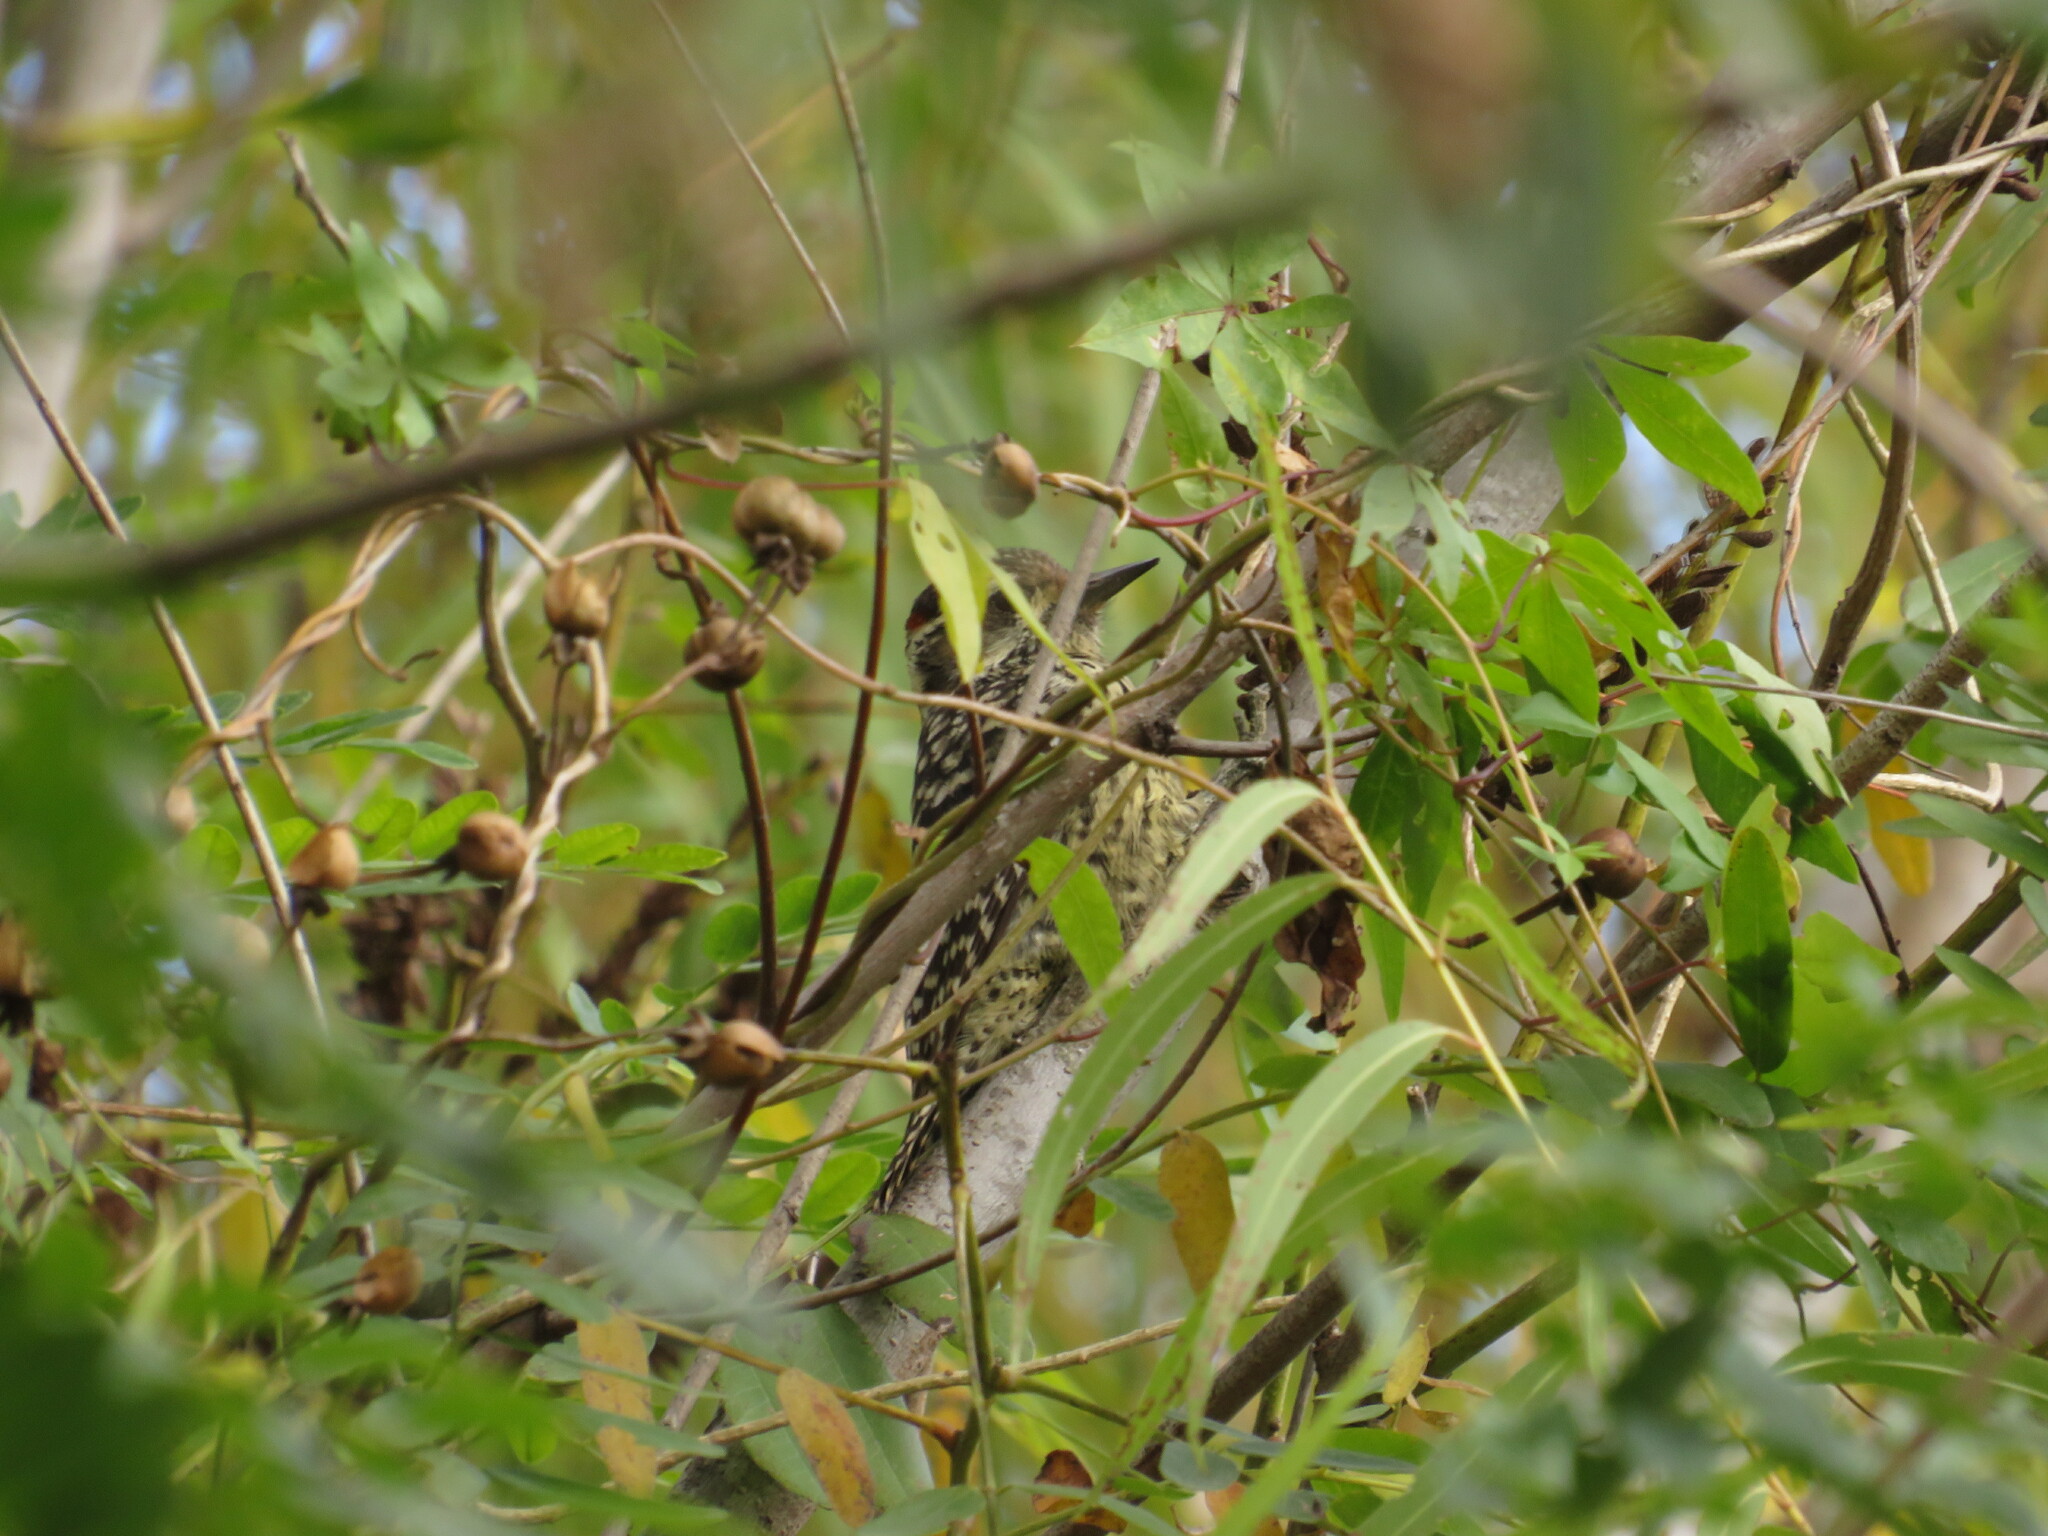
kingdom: Animalia
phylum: Chordata
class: Aves
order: Piciformes
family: Picidae
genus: Veniliornis
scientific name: Veniliornis mixtus
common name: Checkered woodpecker
